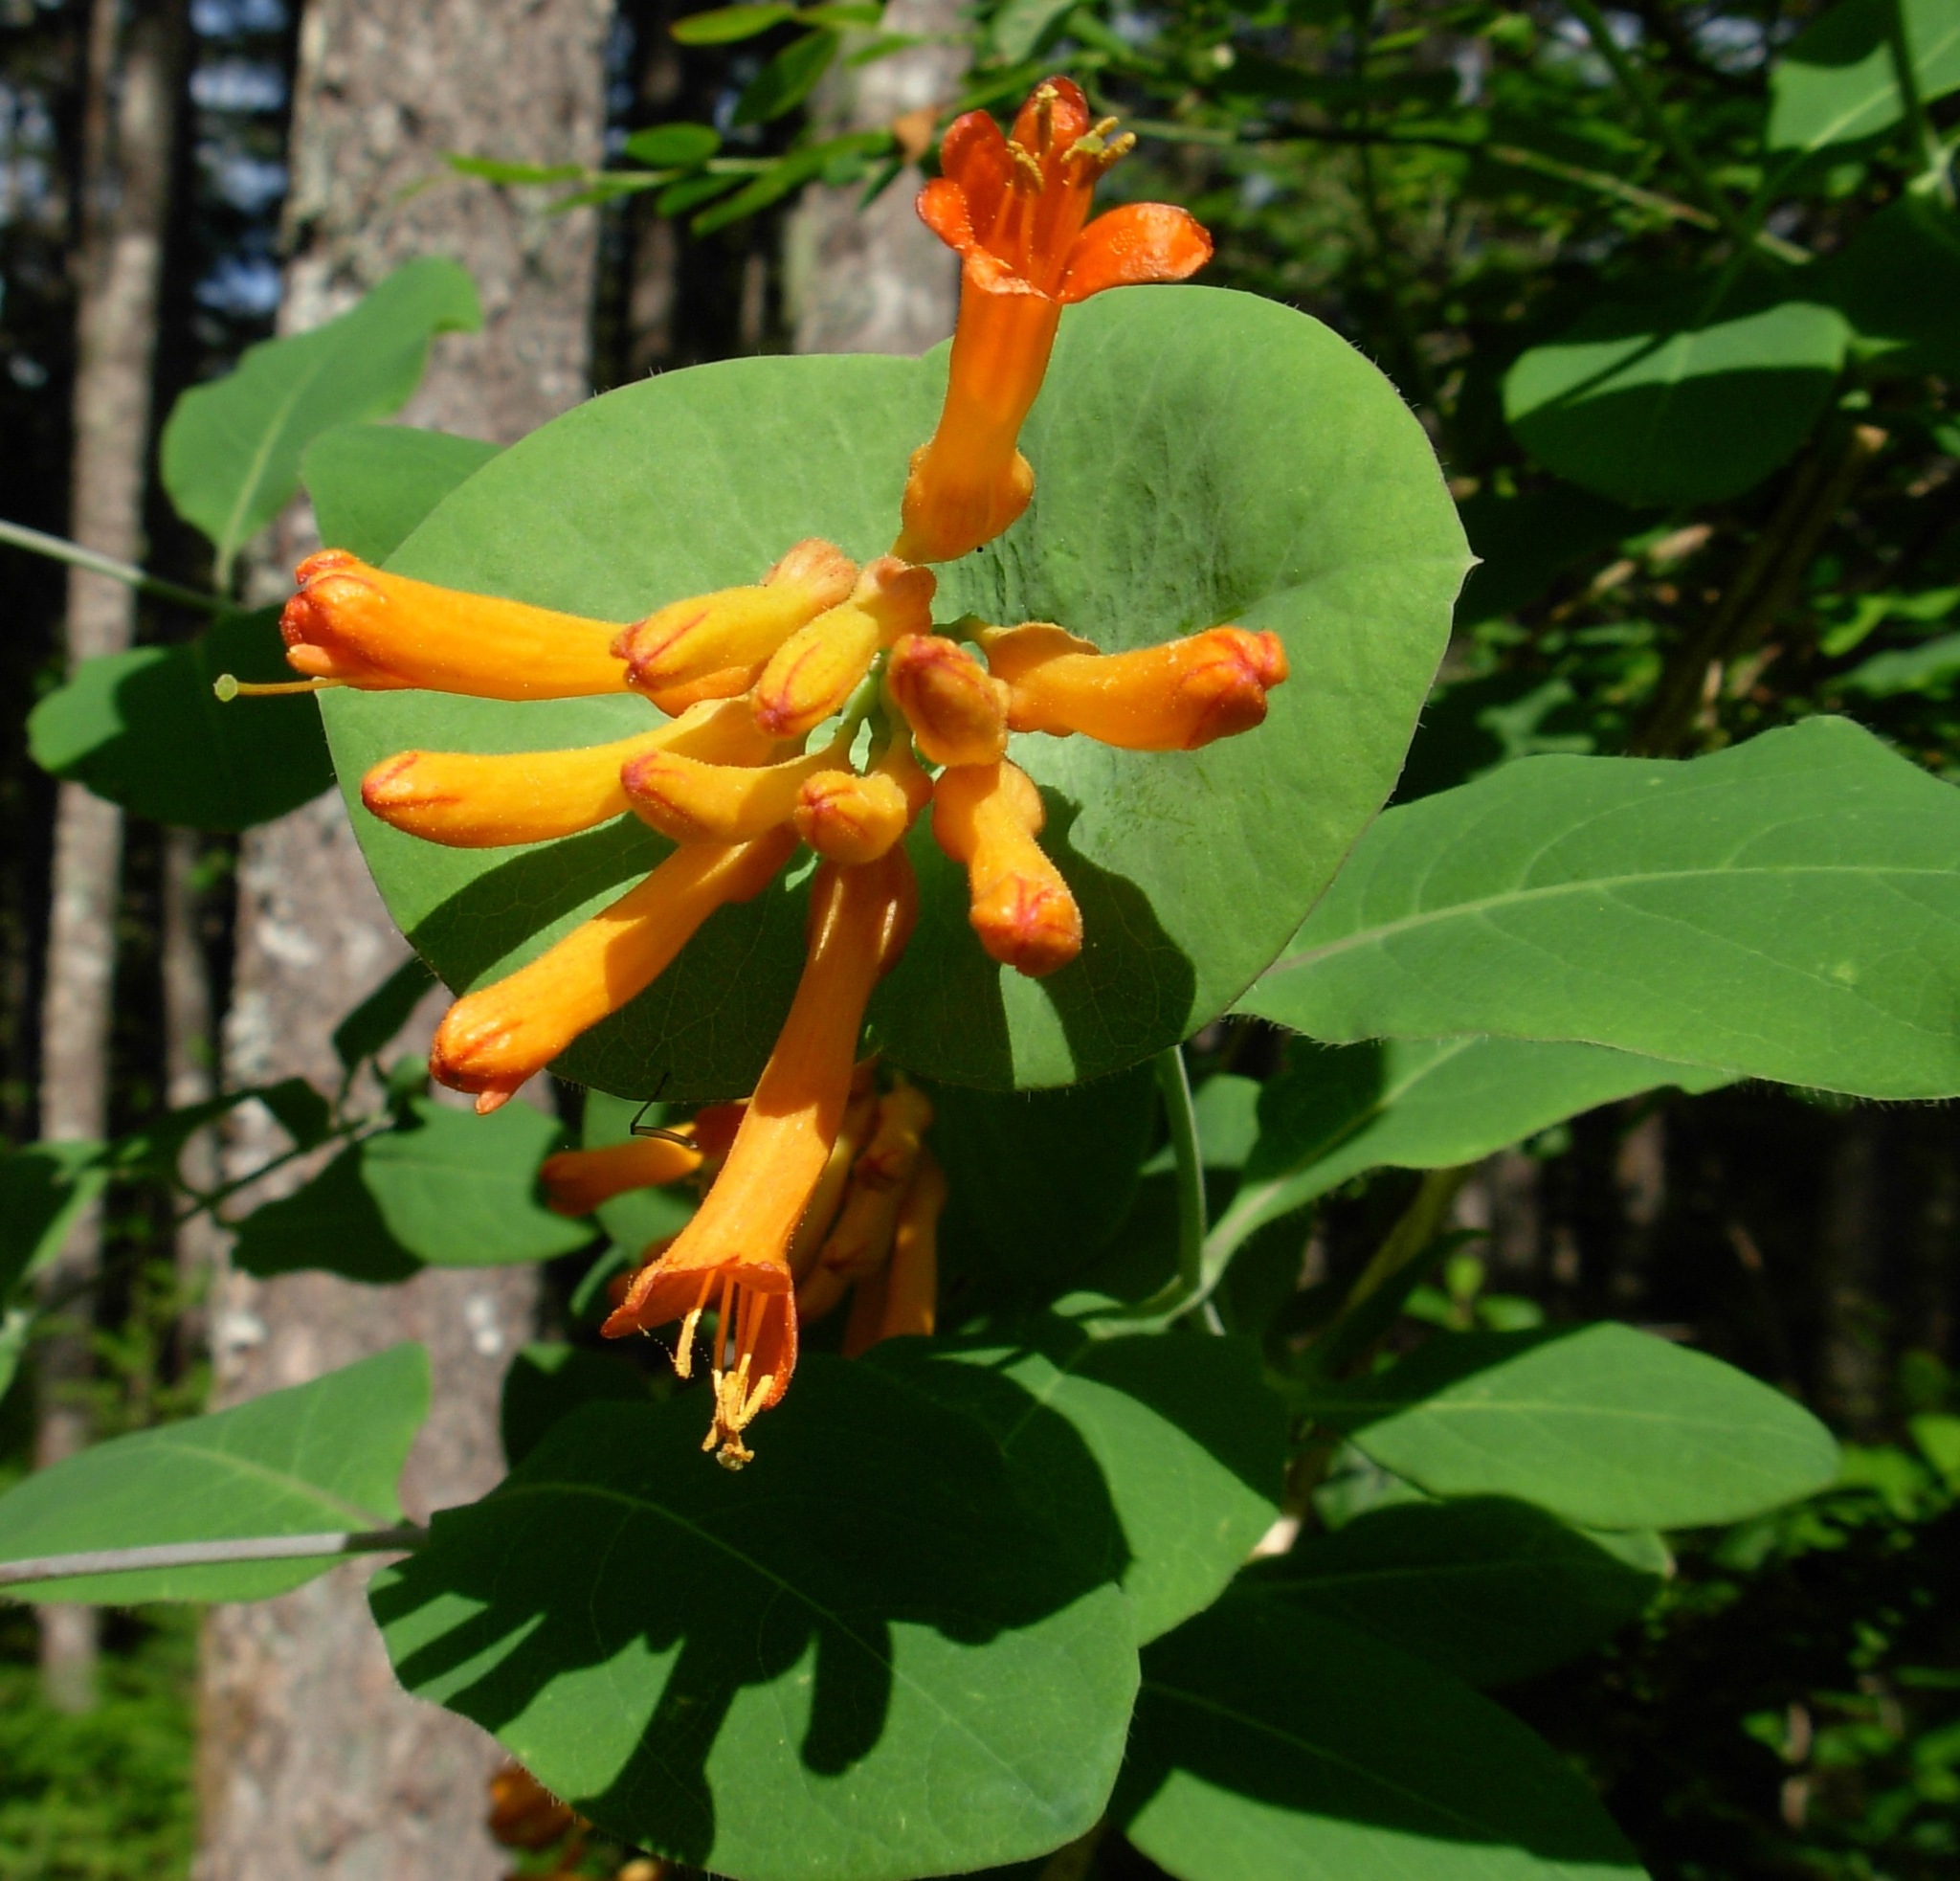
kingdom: Plantae
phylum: Tracheophyta
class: Magnoliopsida
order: Dipsacales
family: Caprifoliaceae
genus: Lonicera
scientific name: Lonicera ciliosa
